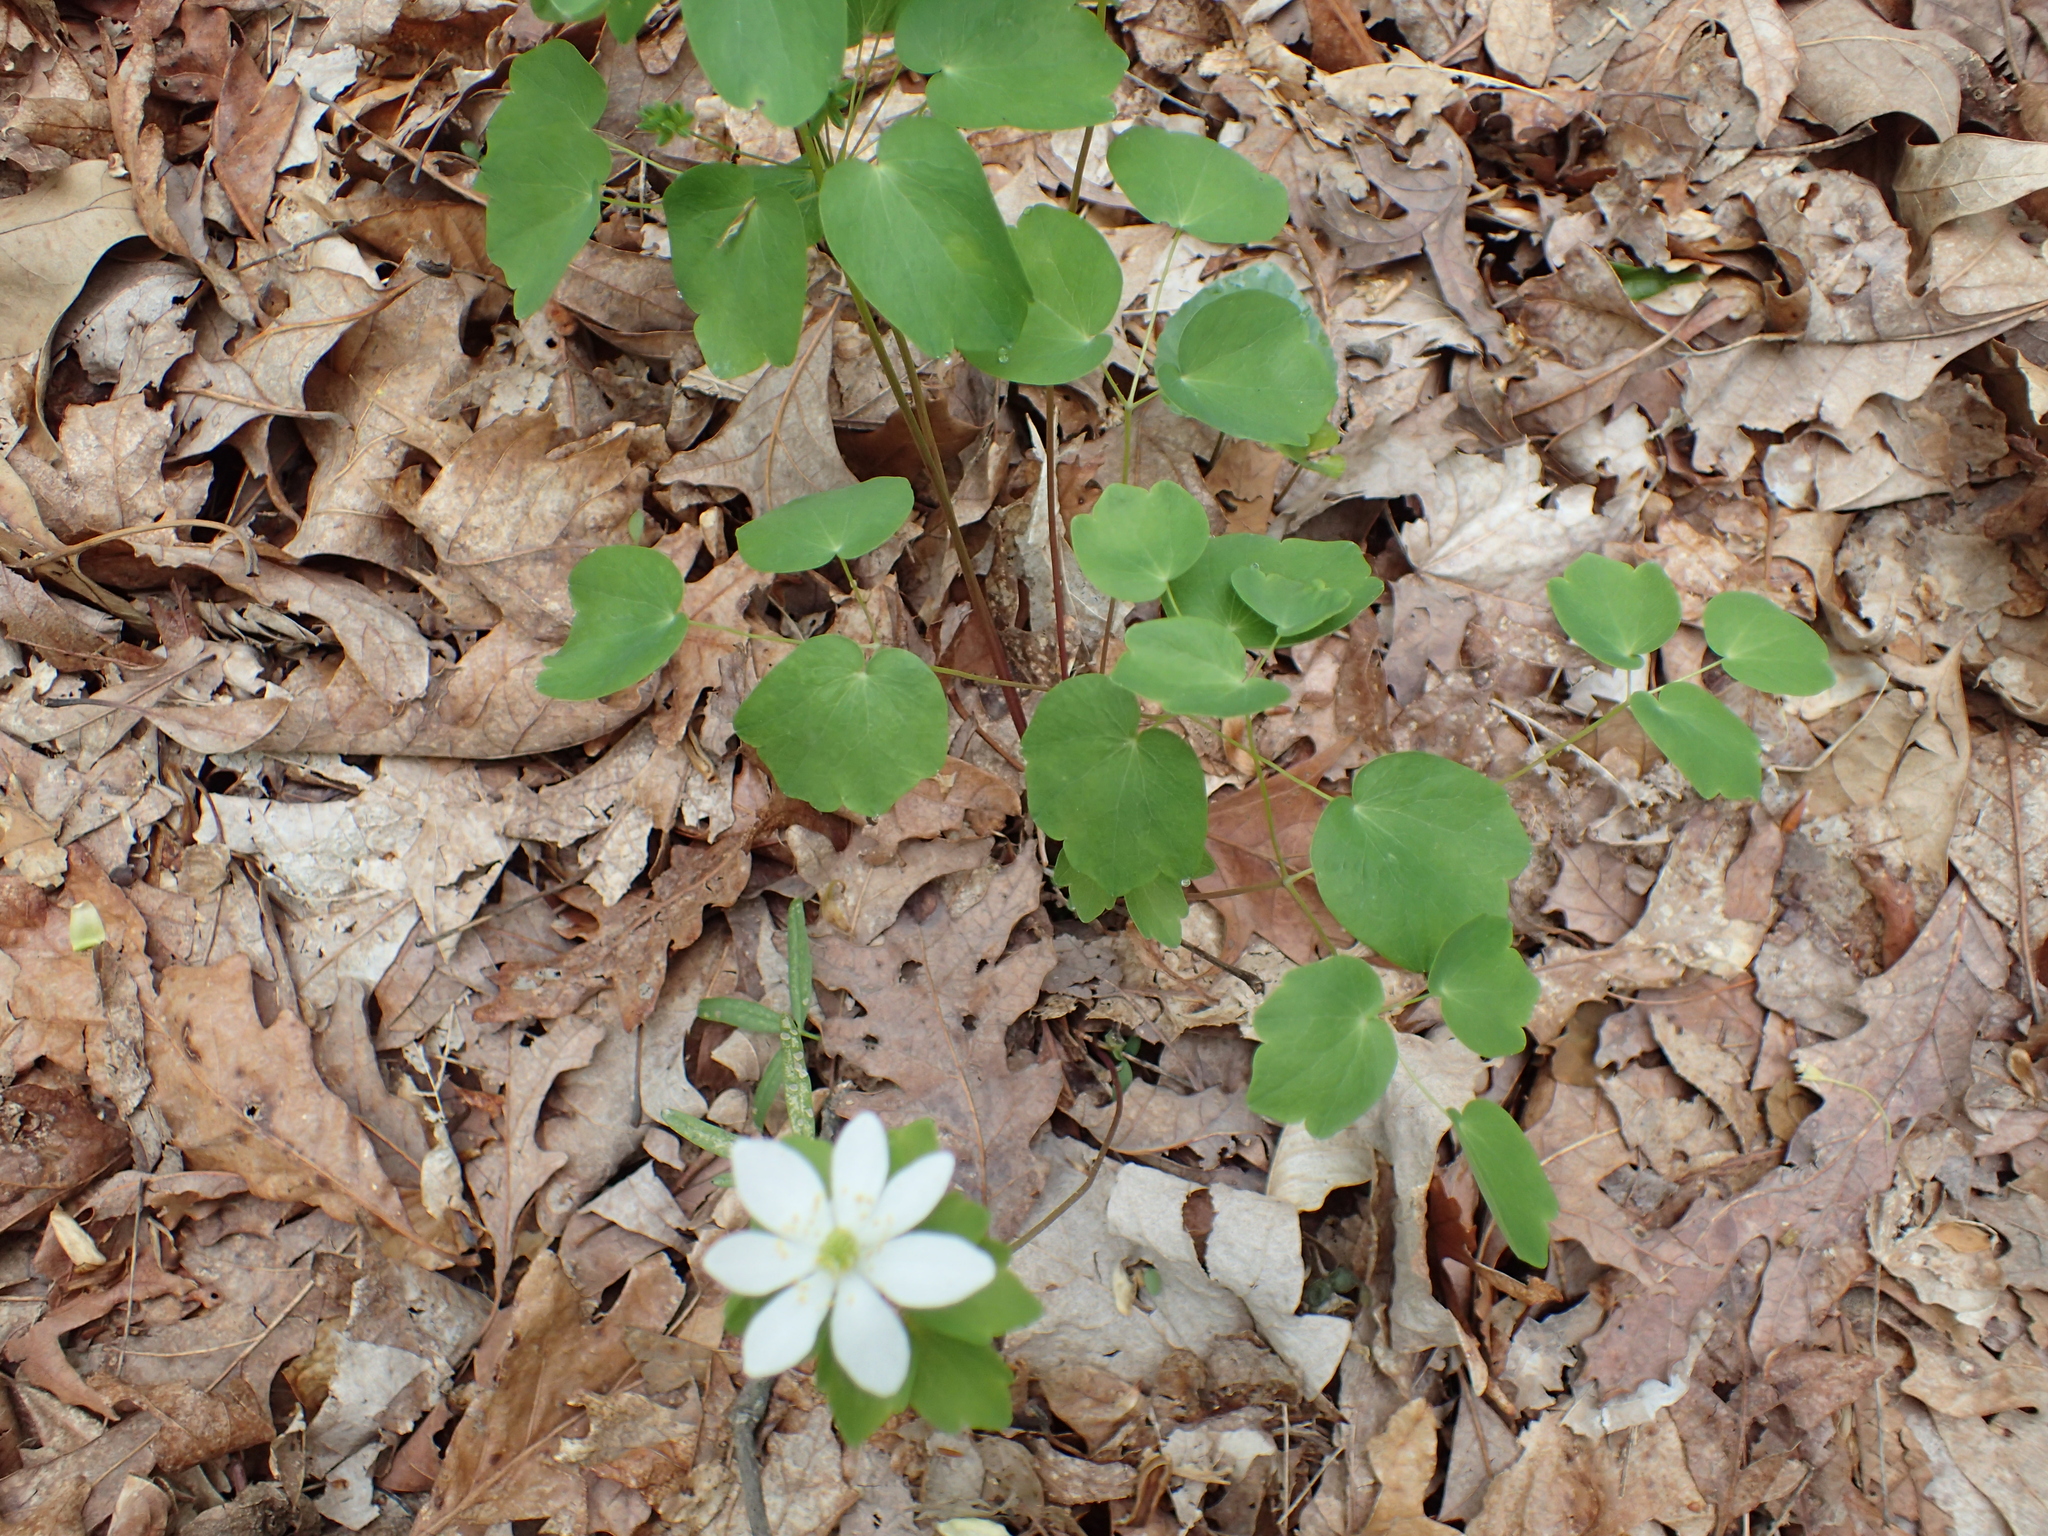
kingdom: Plantae
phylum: Tracheophyta
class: Magnoliopsida
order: Ranunculales
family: Ranunculaceae
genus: Thalictrum
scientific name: Thalictrum thalictroides
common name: Rue-anemone
